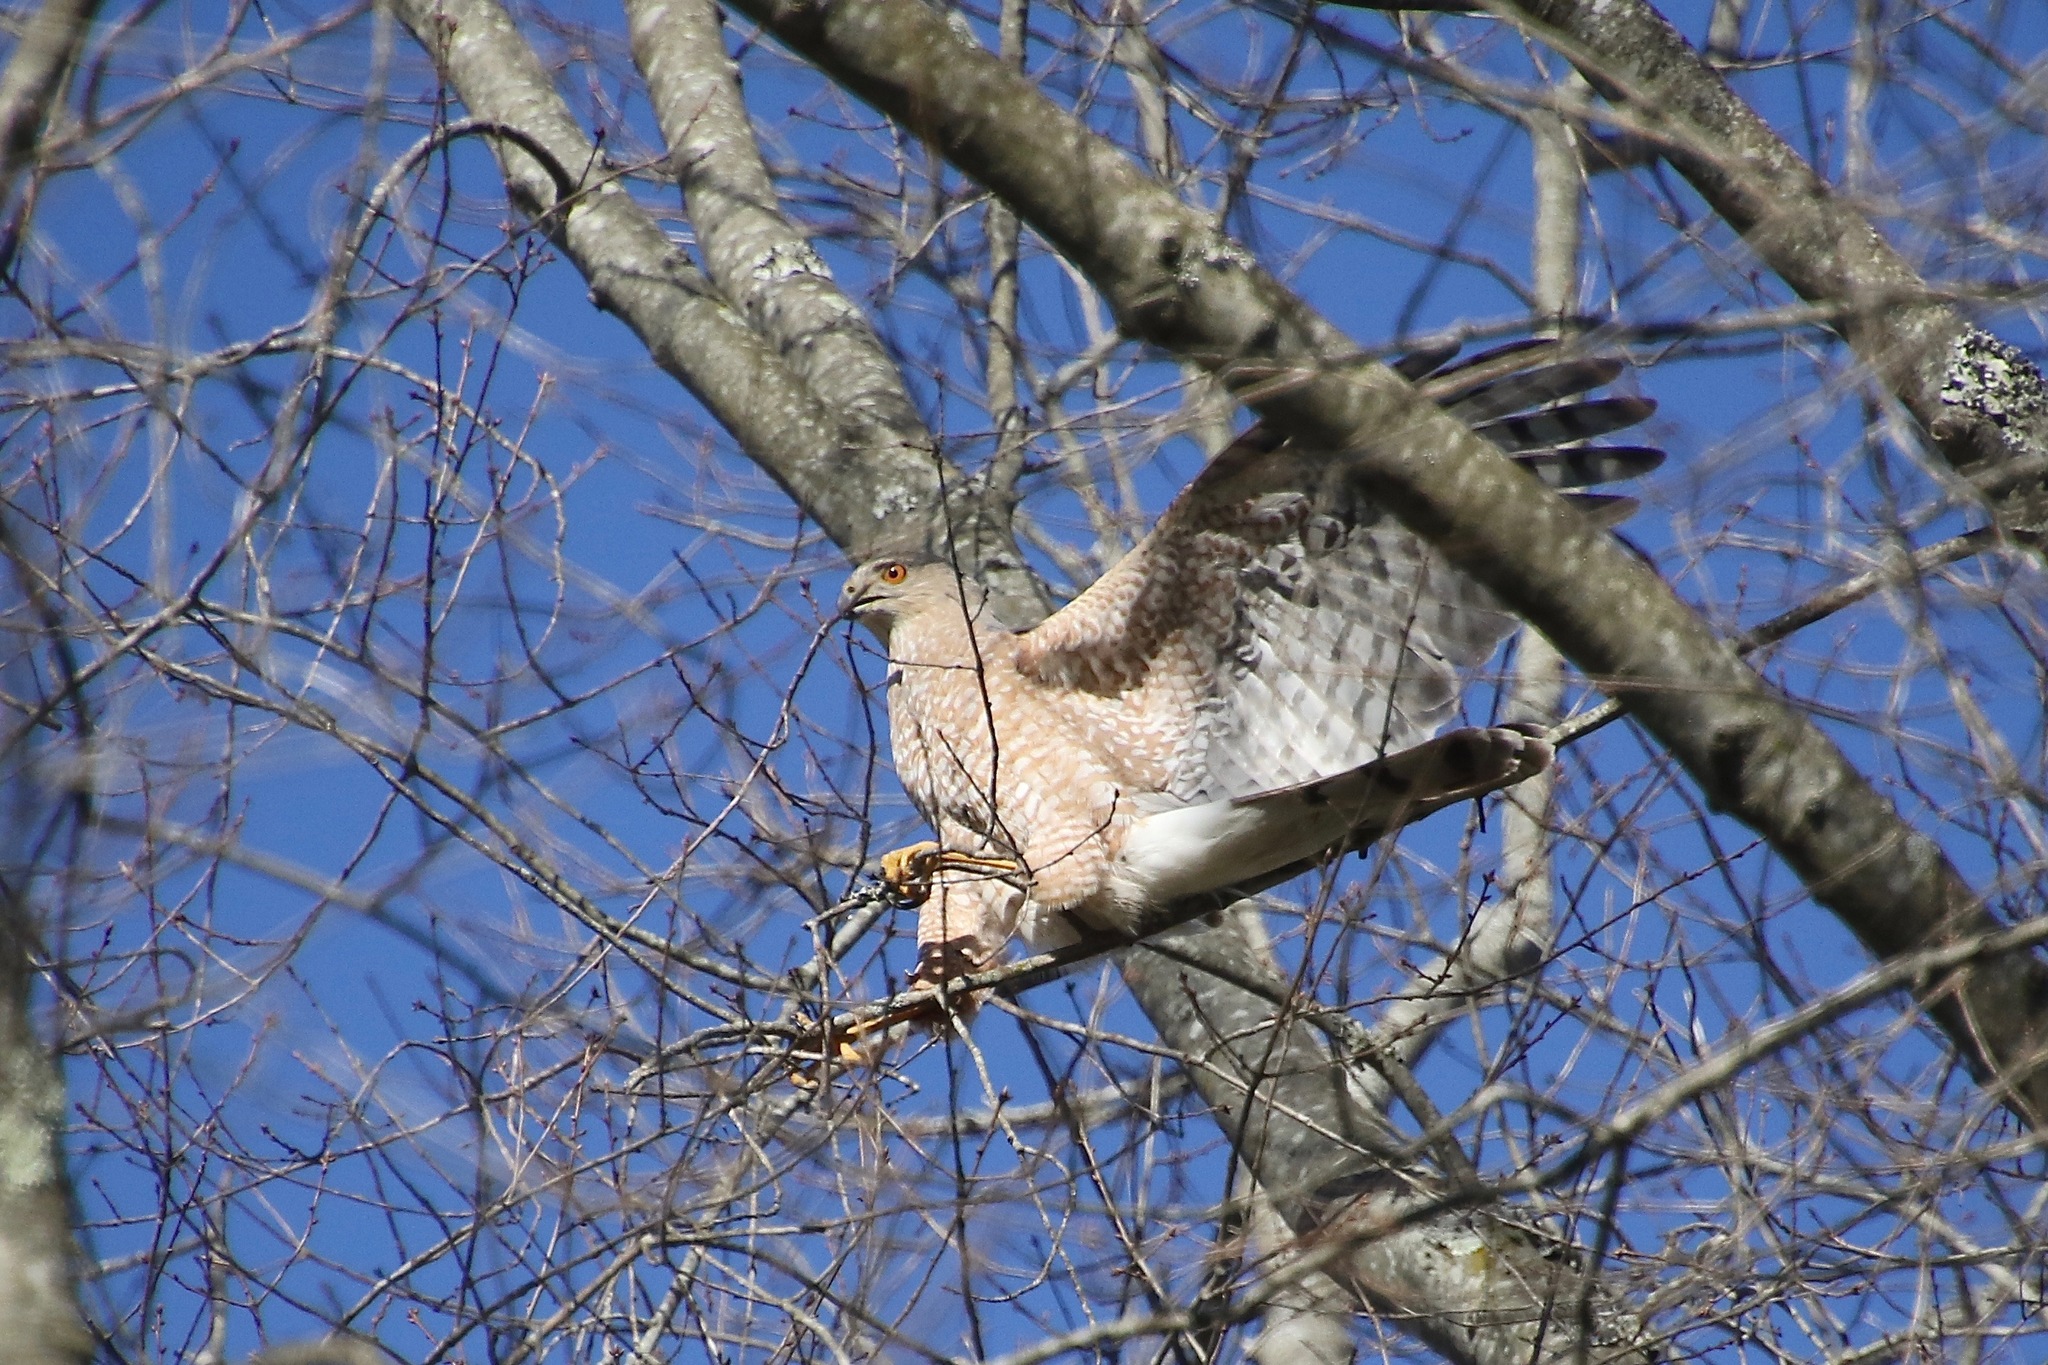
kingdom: Animalia
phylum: Chordata
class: Aves
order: Accipitriformes
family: Accipitridae
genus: Accipiter
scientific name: Accipiter cooperii
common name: Cooper's hawk
